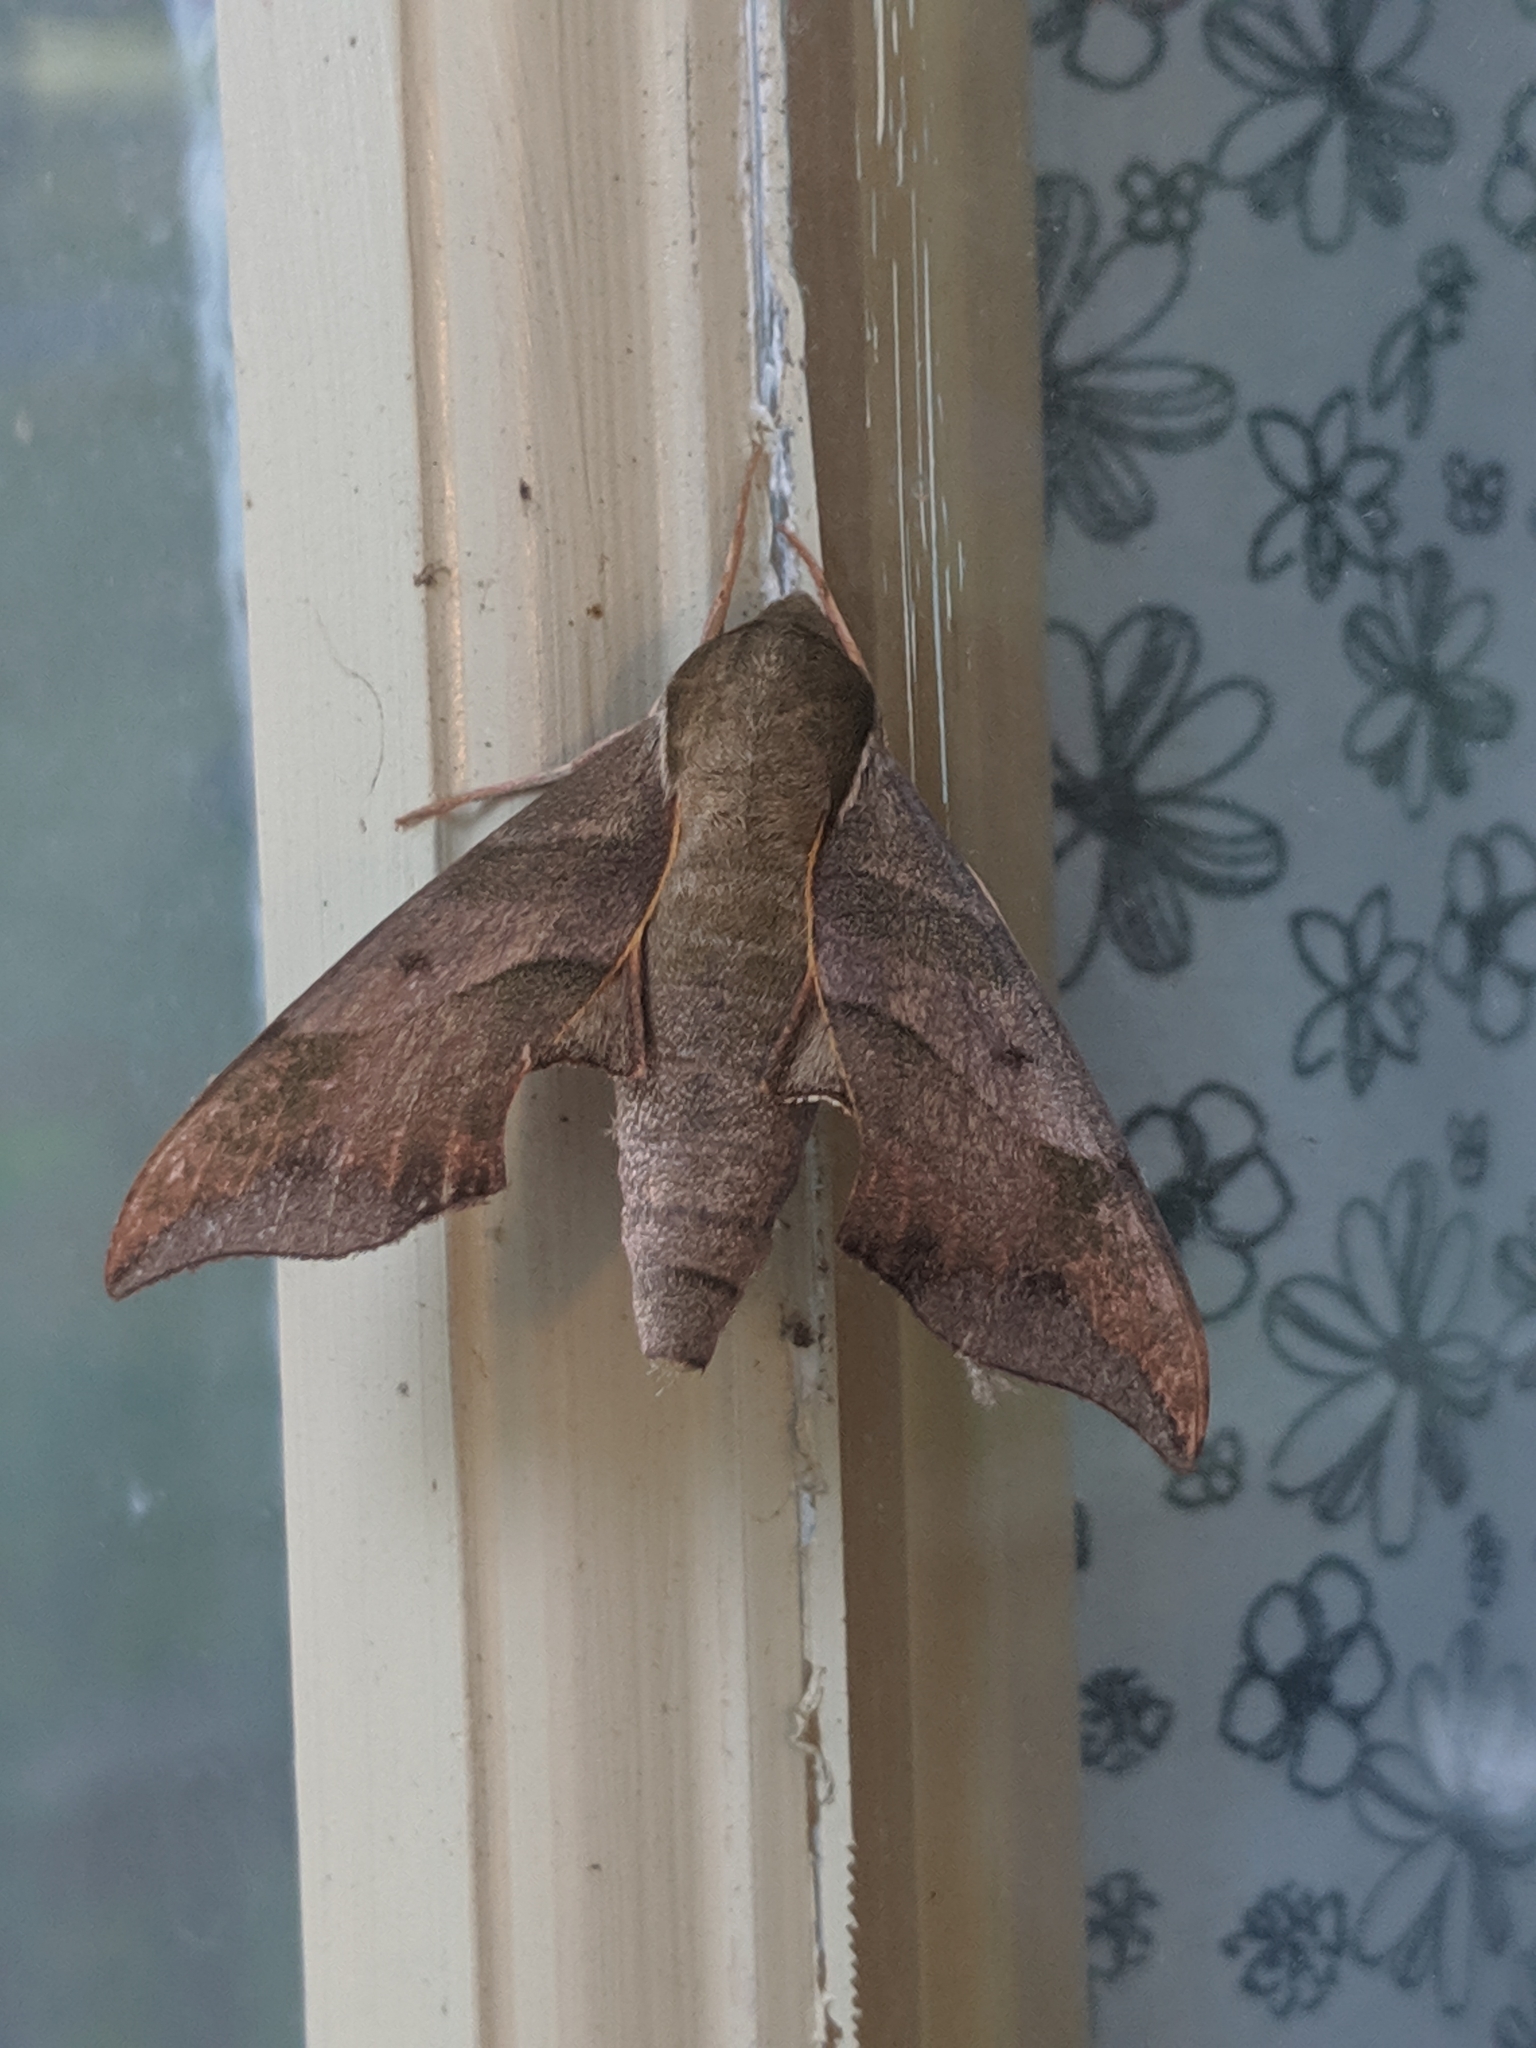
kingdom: Animalia
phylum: Arthropoda
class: Insecta
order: Lepidoptera
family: Sphingidae
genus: Darapsa
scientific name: Darapsa myron
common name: Hog sphinx
